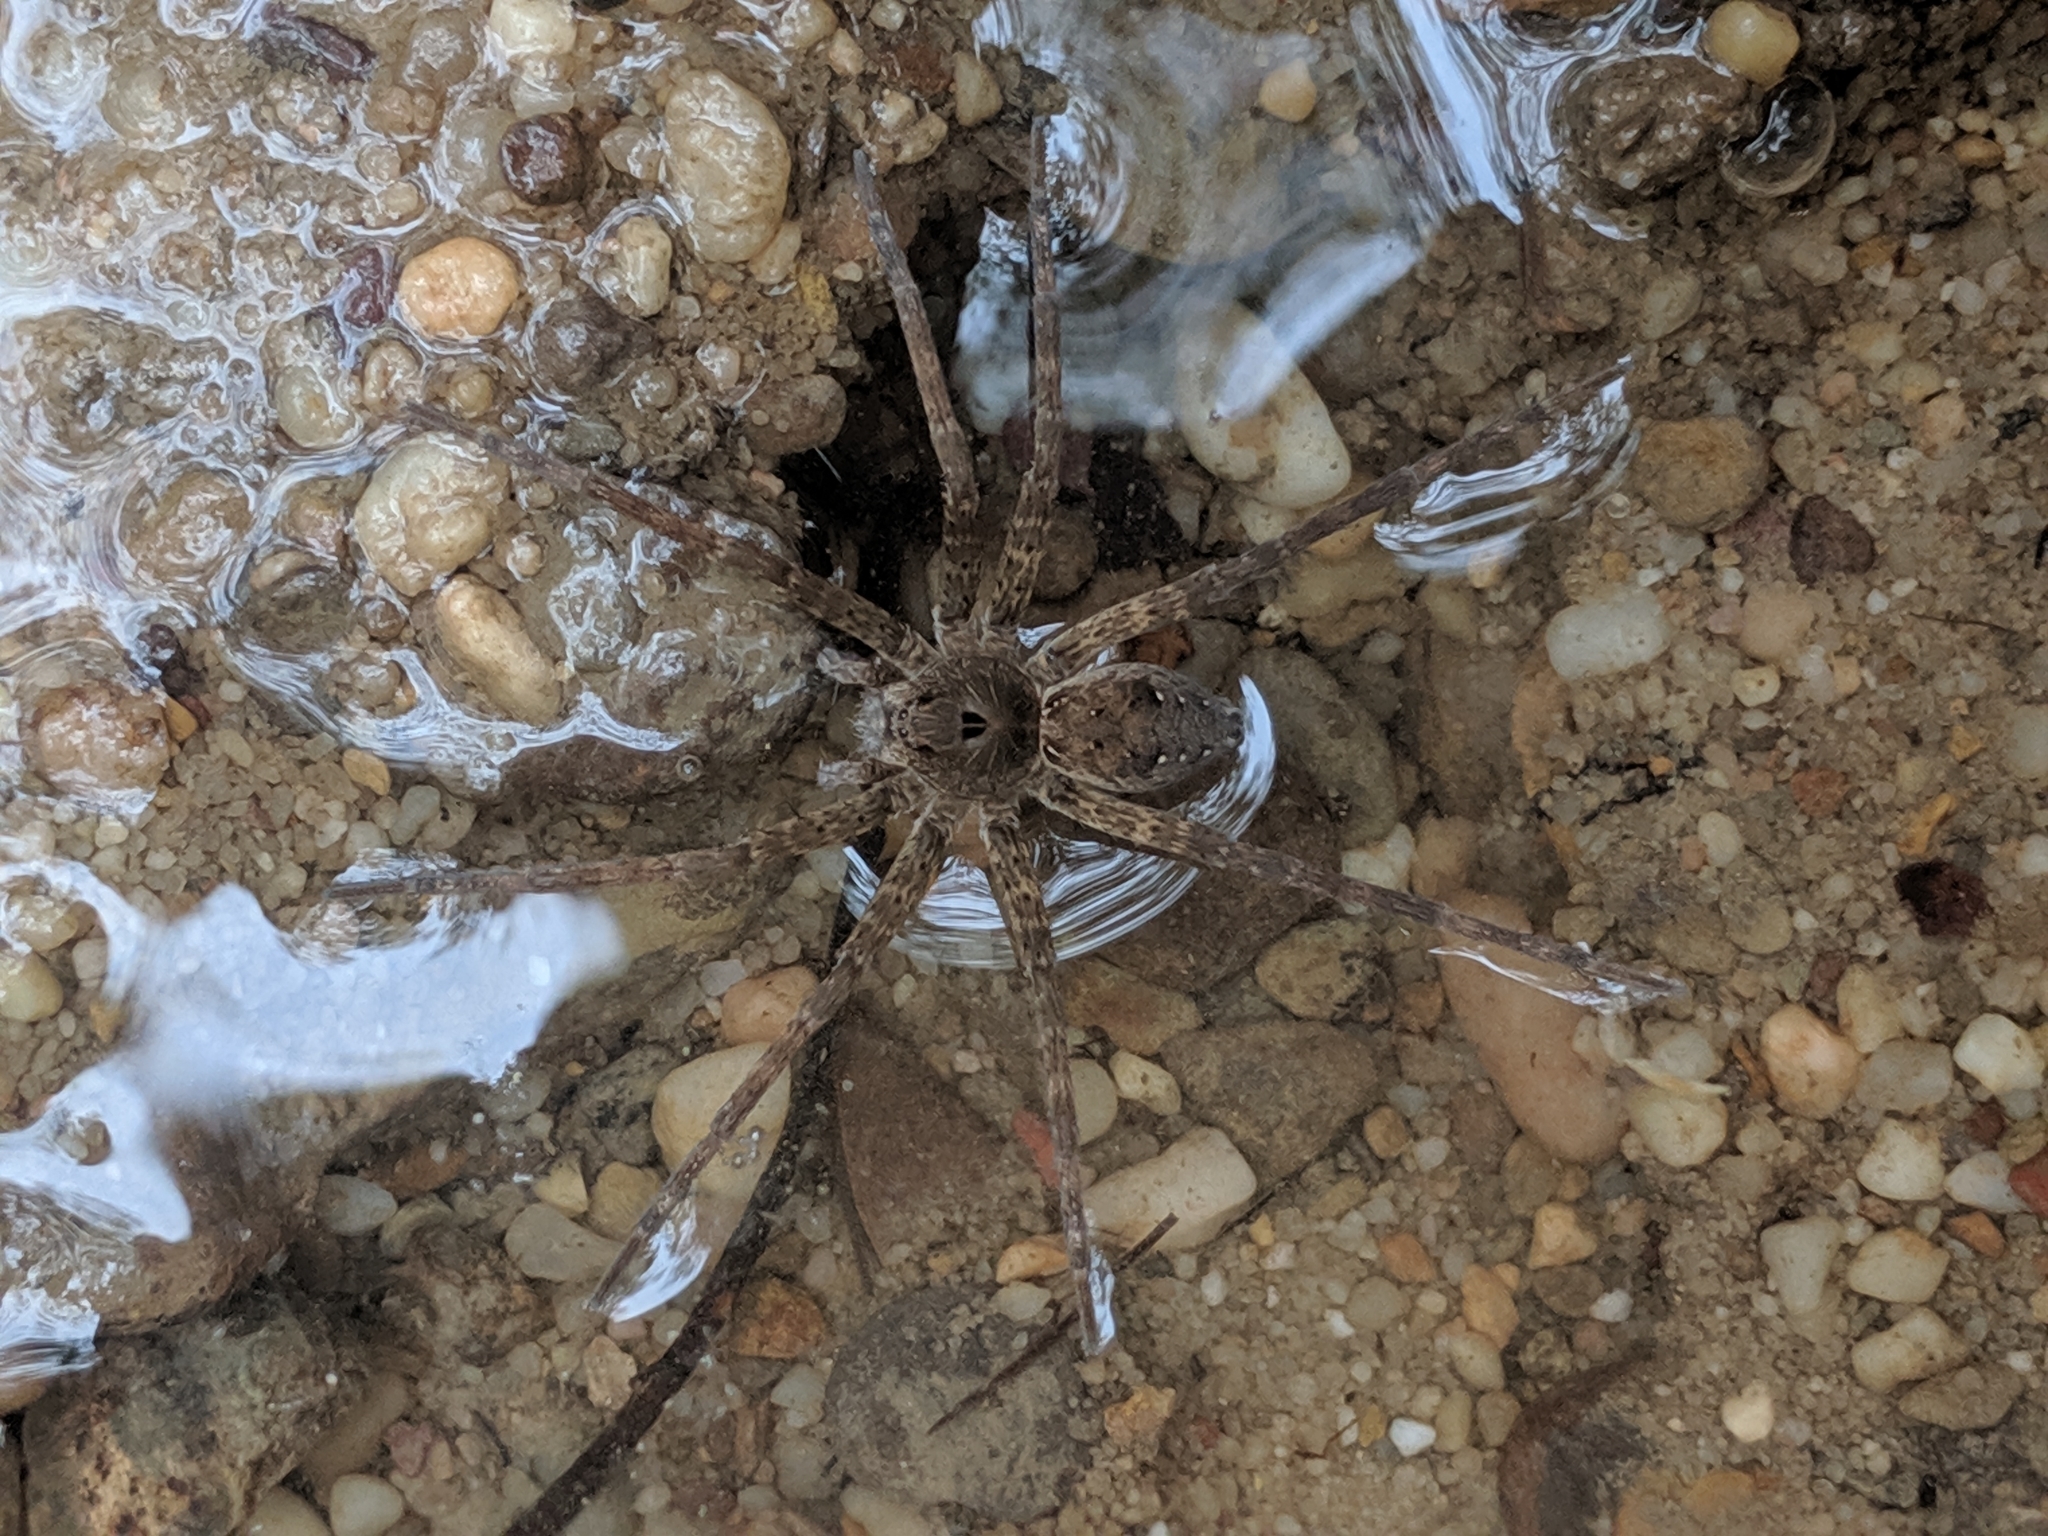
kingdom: Animalia
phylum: Arthropoda
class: Arachnida
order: Araneae
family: Pisauridae
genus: Dolomedes
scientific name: Dolomedes vittatus
